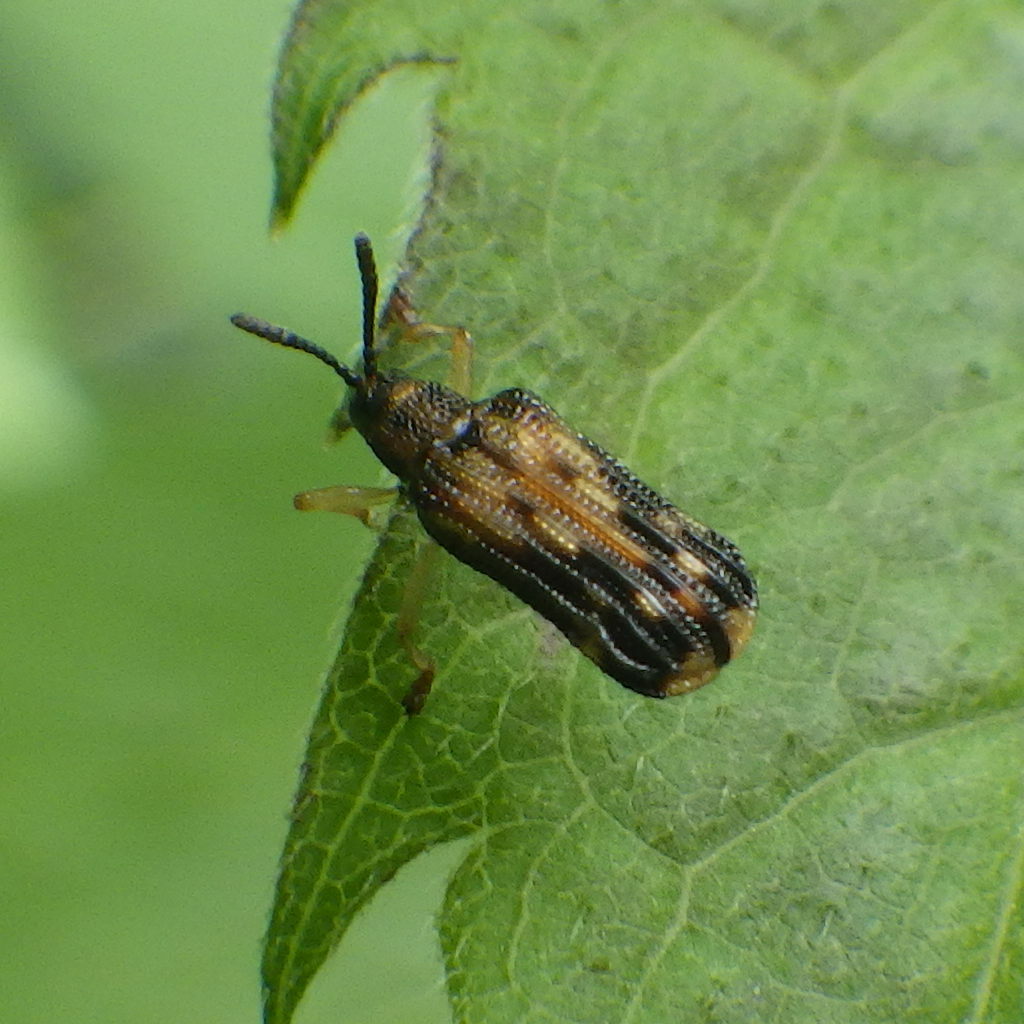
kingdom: Animalia
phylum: Arthropoda
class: Insecta
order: Coleoptera
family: Chrysomelidae
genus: Sumitrosis
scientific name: Sumitrosis inaequalis
